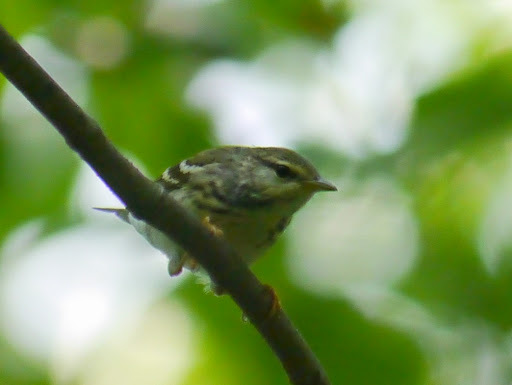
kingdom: Animalia
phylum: Chordata
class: Aves
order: Passeriformes
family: Parulidae
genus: Setophaga
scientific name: Setophaga striata
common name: Blackpoll warbler
